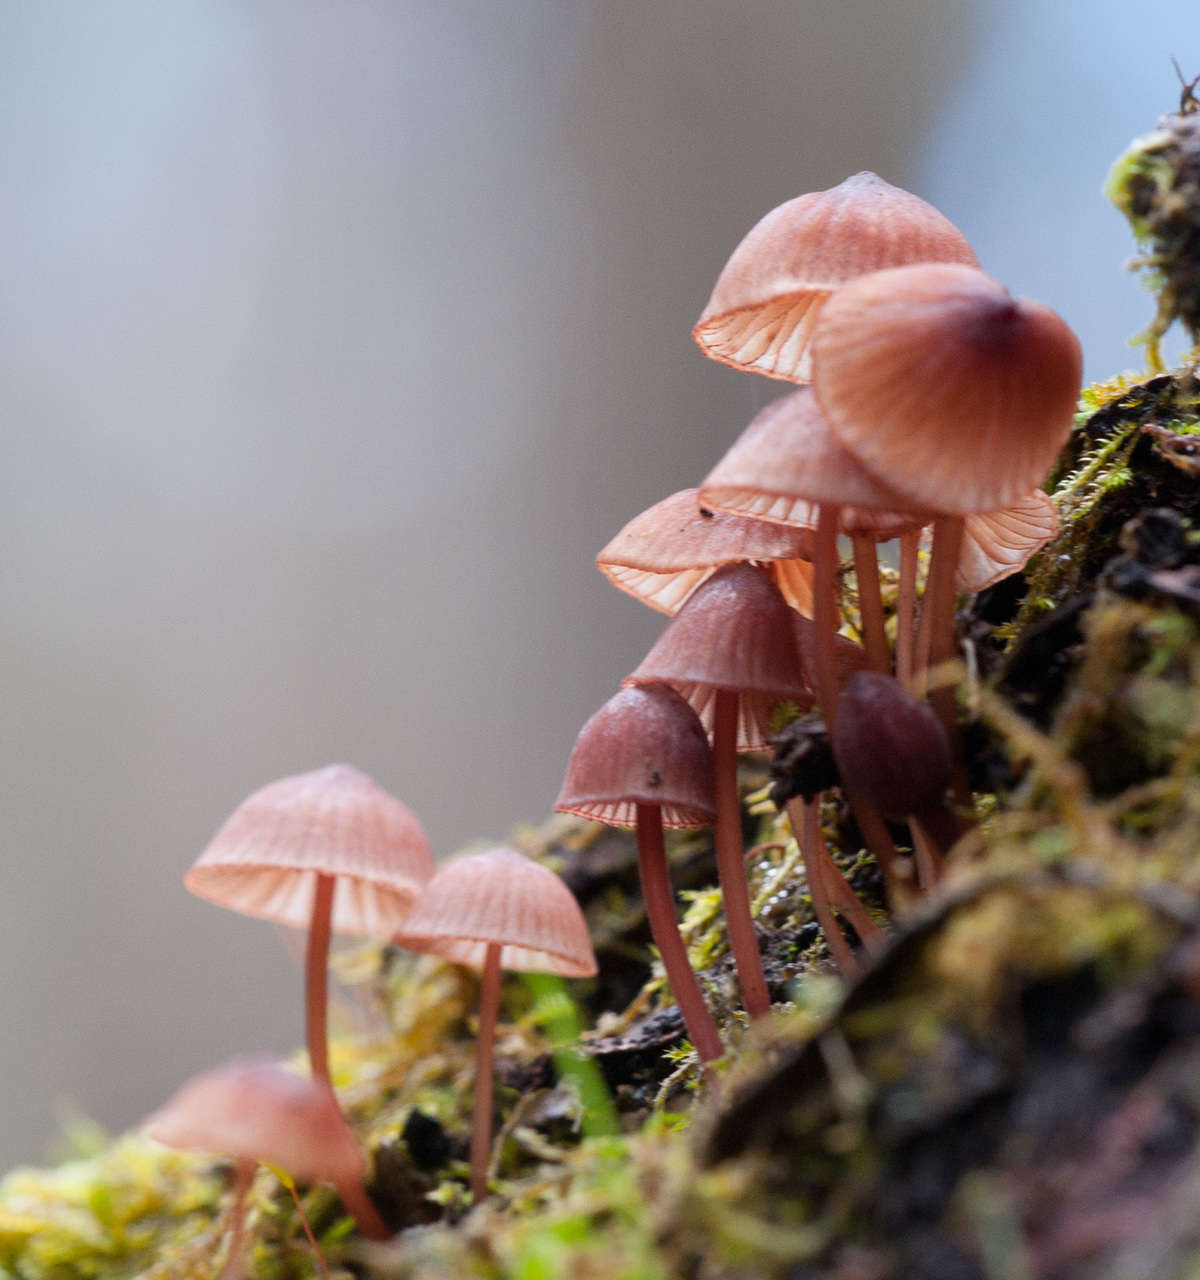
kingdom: Fungi
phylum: Basidiomycota
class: Agaricomycetes
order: Agaricales
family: Mycenaceae
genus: Mycena
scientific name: Mycena kuurkacea
